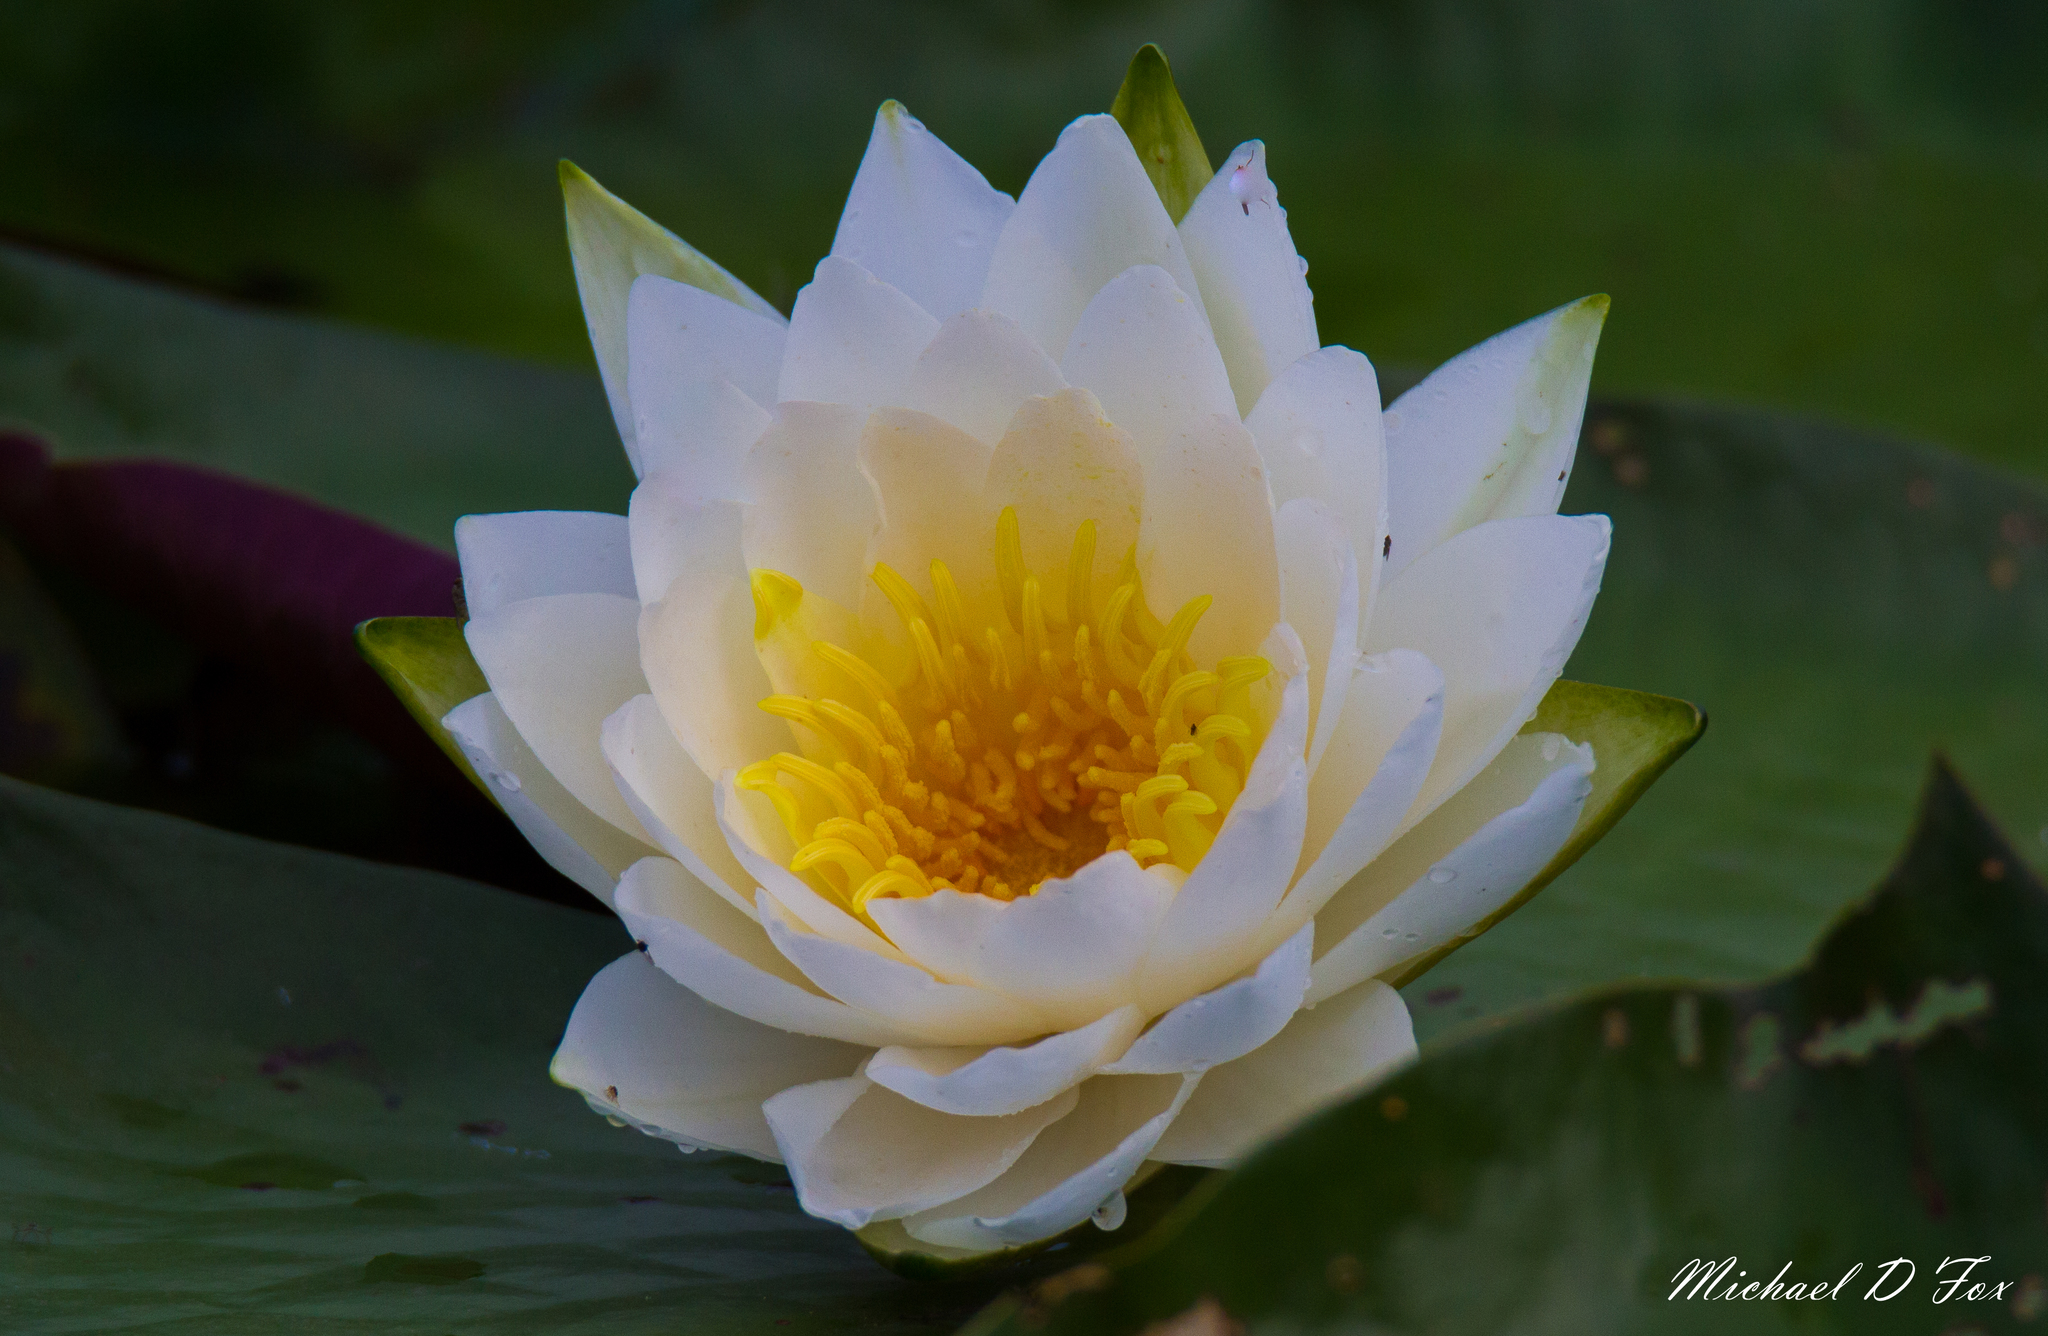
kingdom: Plantae
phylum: Tracheophyta
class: Magnoliopsida
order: Nymphaeales
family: Nymphaeaceae
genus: Nymphaea
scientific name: Nymphaea odorata
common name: Fragrant water-lily
